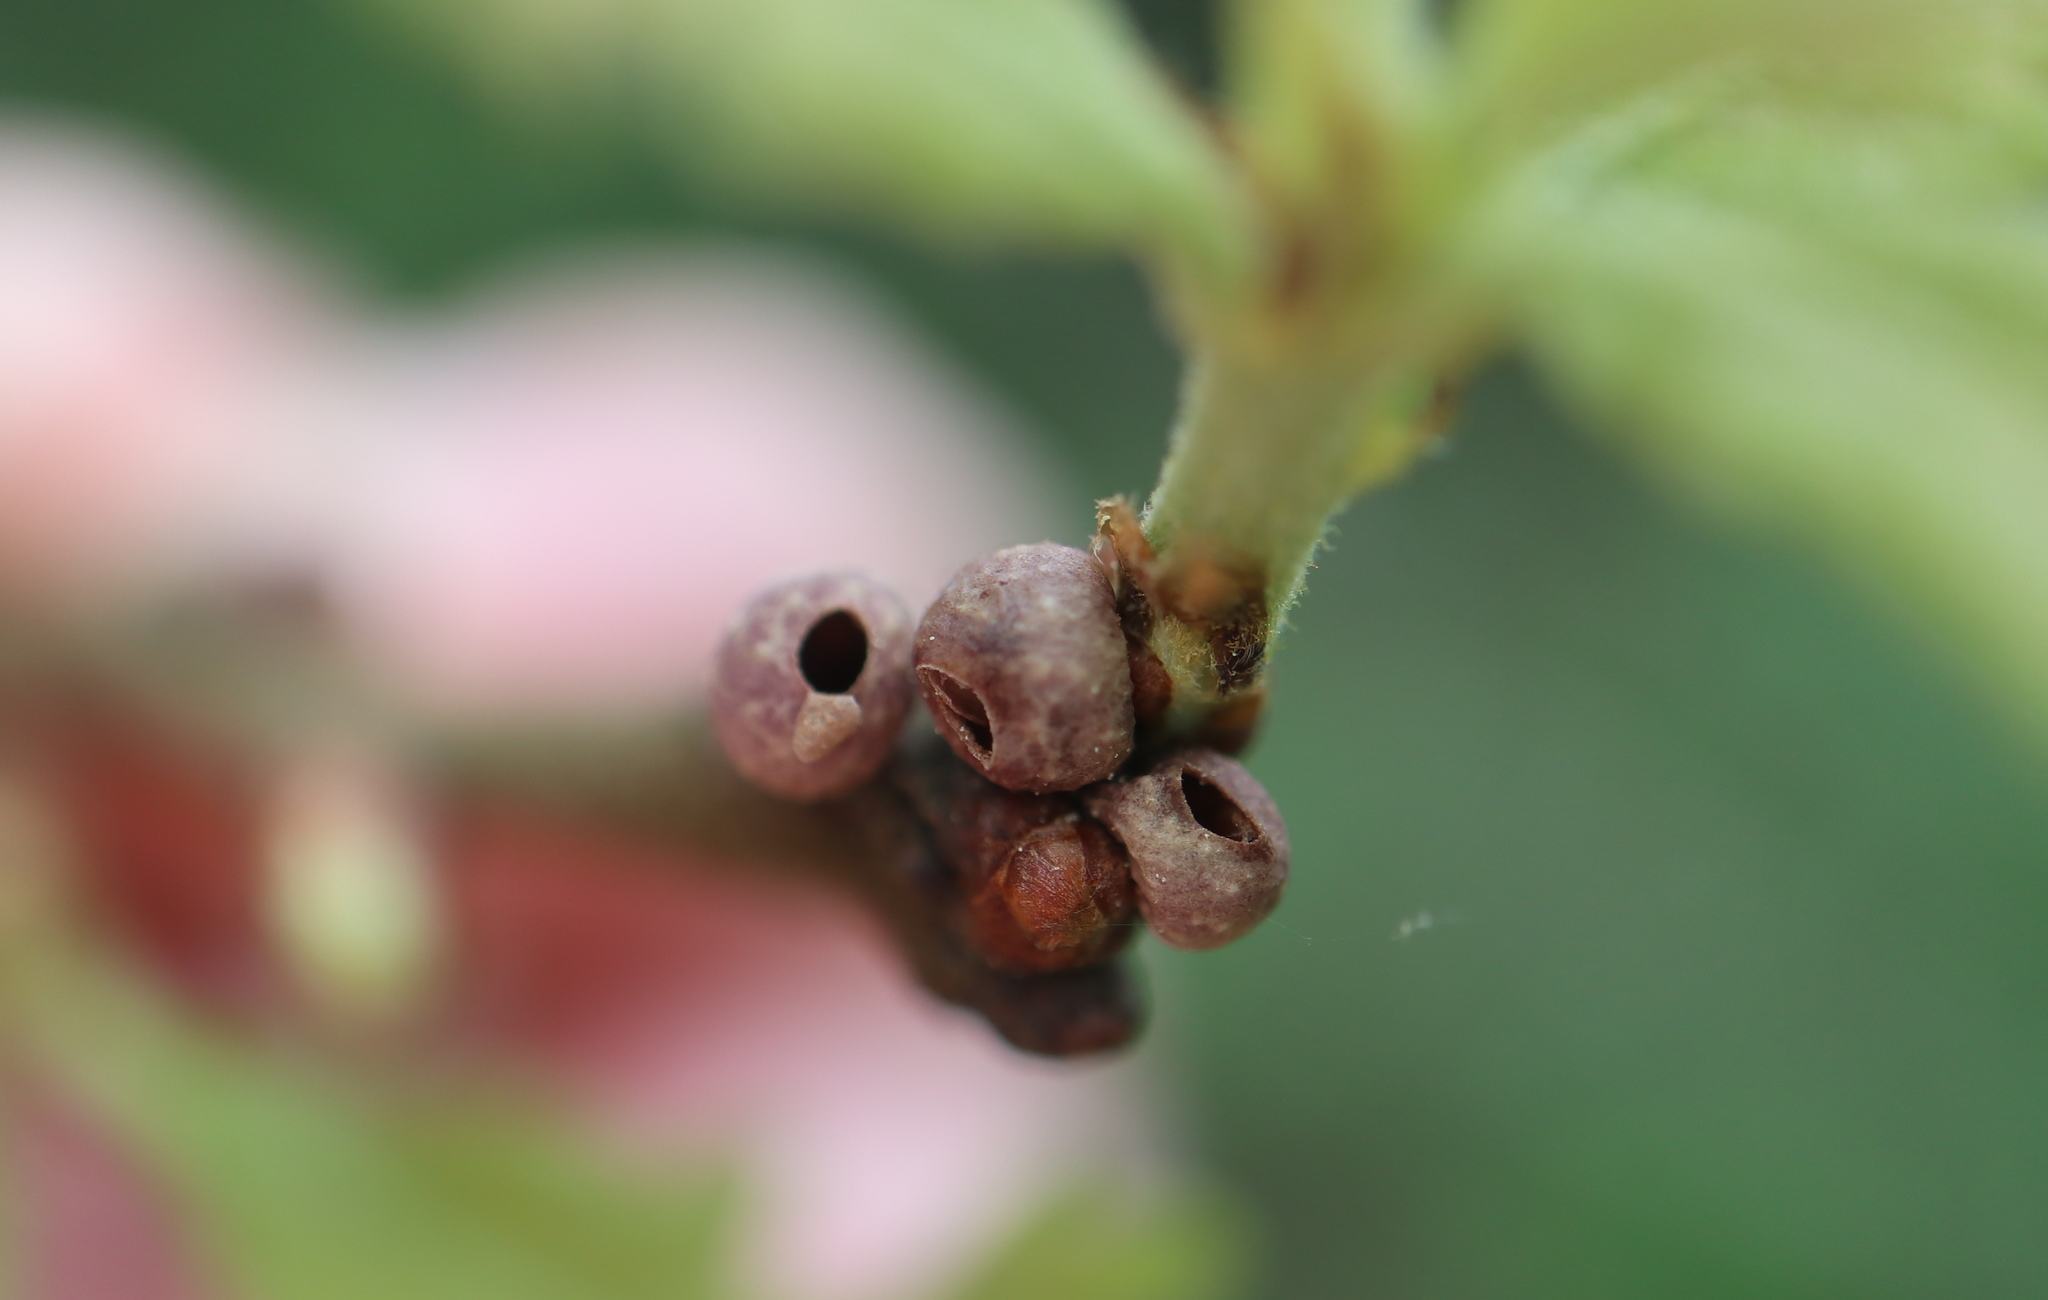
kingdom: Animalia
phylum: Arthropoda
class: Insecta
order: Hymenoptera
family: Cynipidae
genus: Neuroterus
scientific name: Neuroterus
